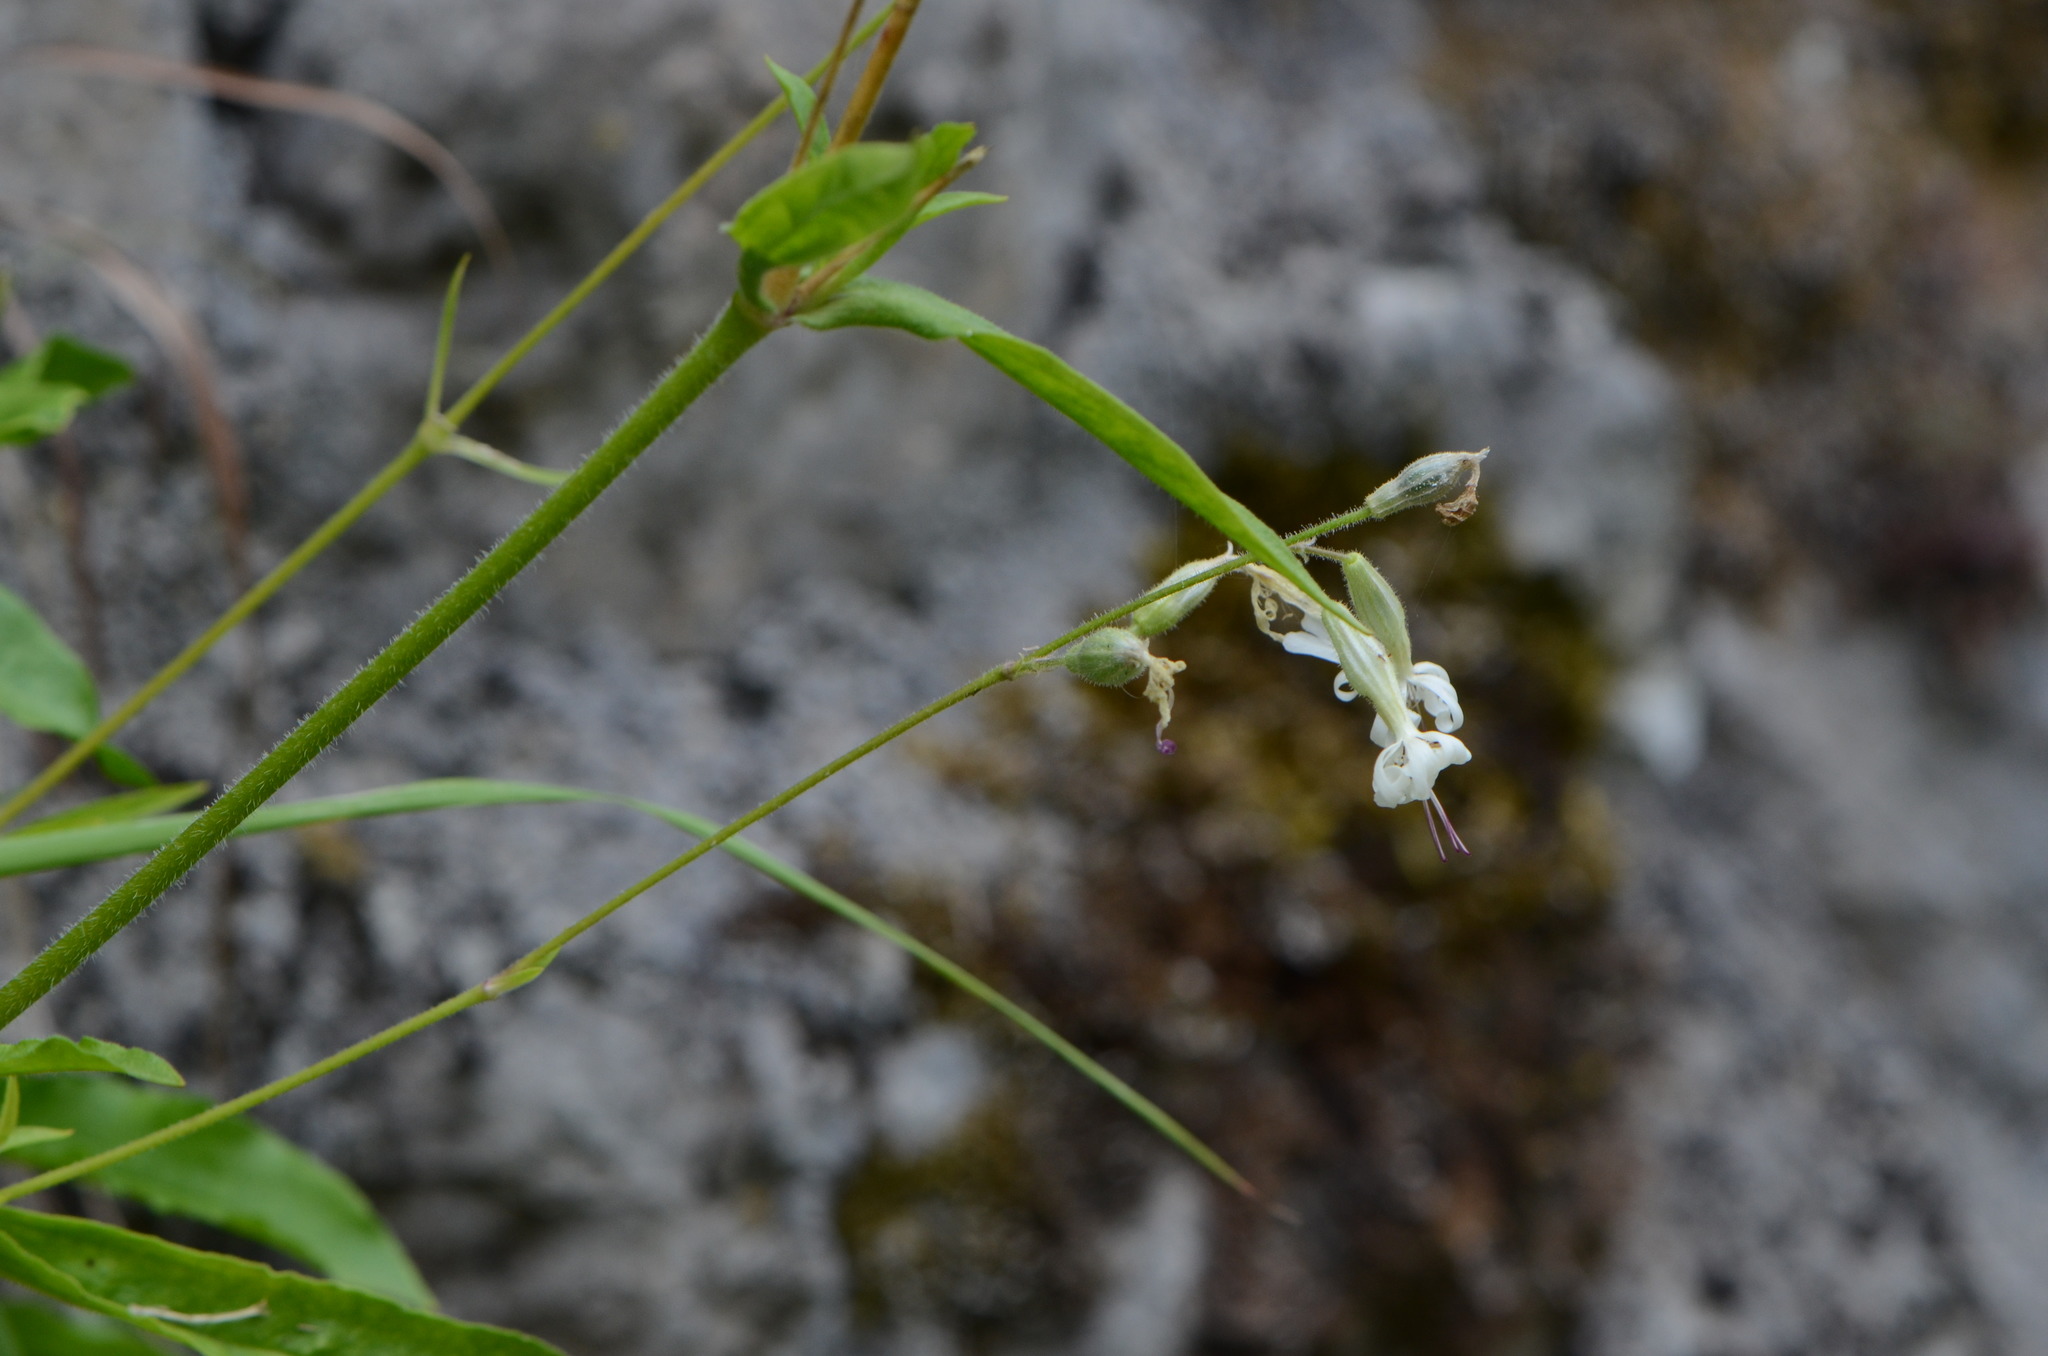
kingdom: Plantae
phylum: Tracheophyta
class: Magnoliopsida
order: Caryophyllales
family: Caryophyllaceae
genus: Silene
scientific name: Silene nutans
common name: Nottingham catchfly
